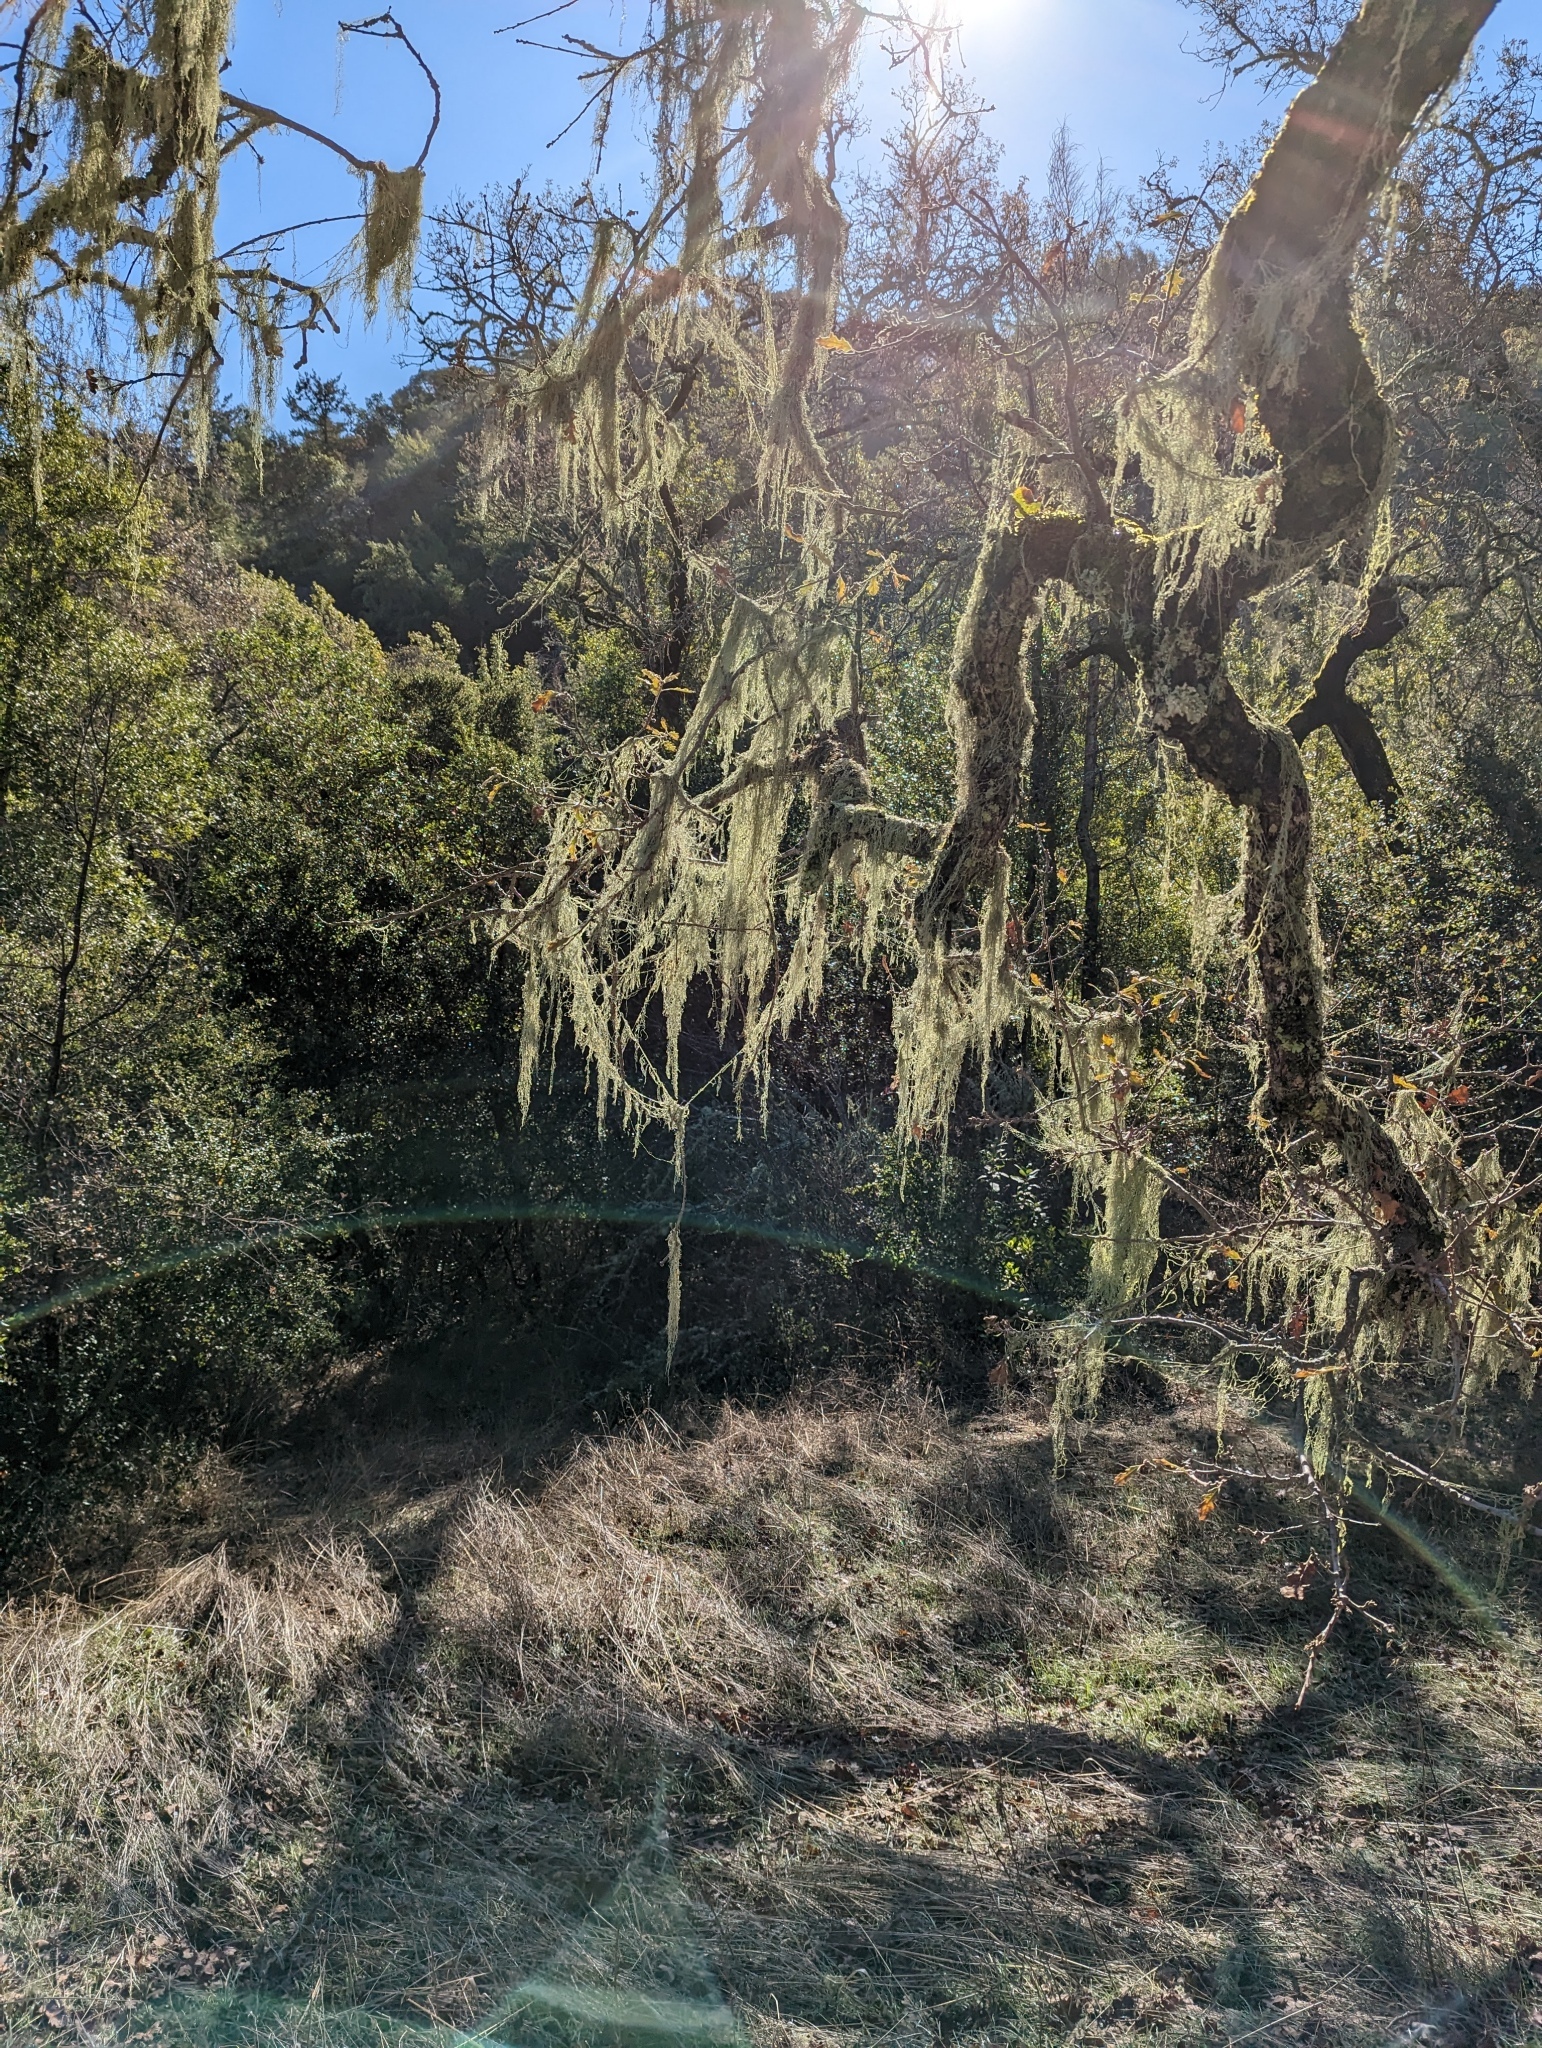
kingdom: Fungi
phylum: Ascomycota
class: Lecanoromycetes
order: Lecanorales
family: Ramalinaceae
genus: Ramalina
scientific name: Ramalina menziesii
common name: Lace lichen
